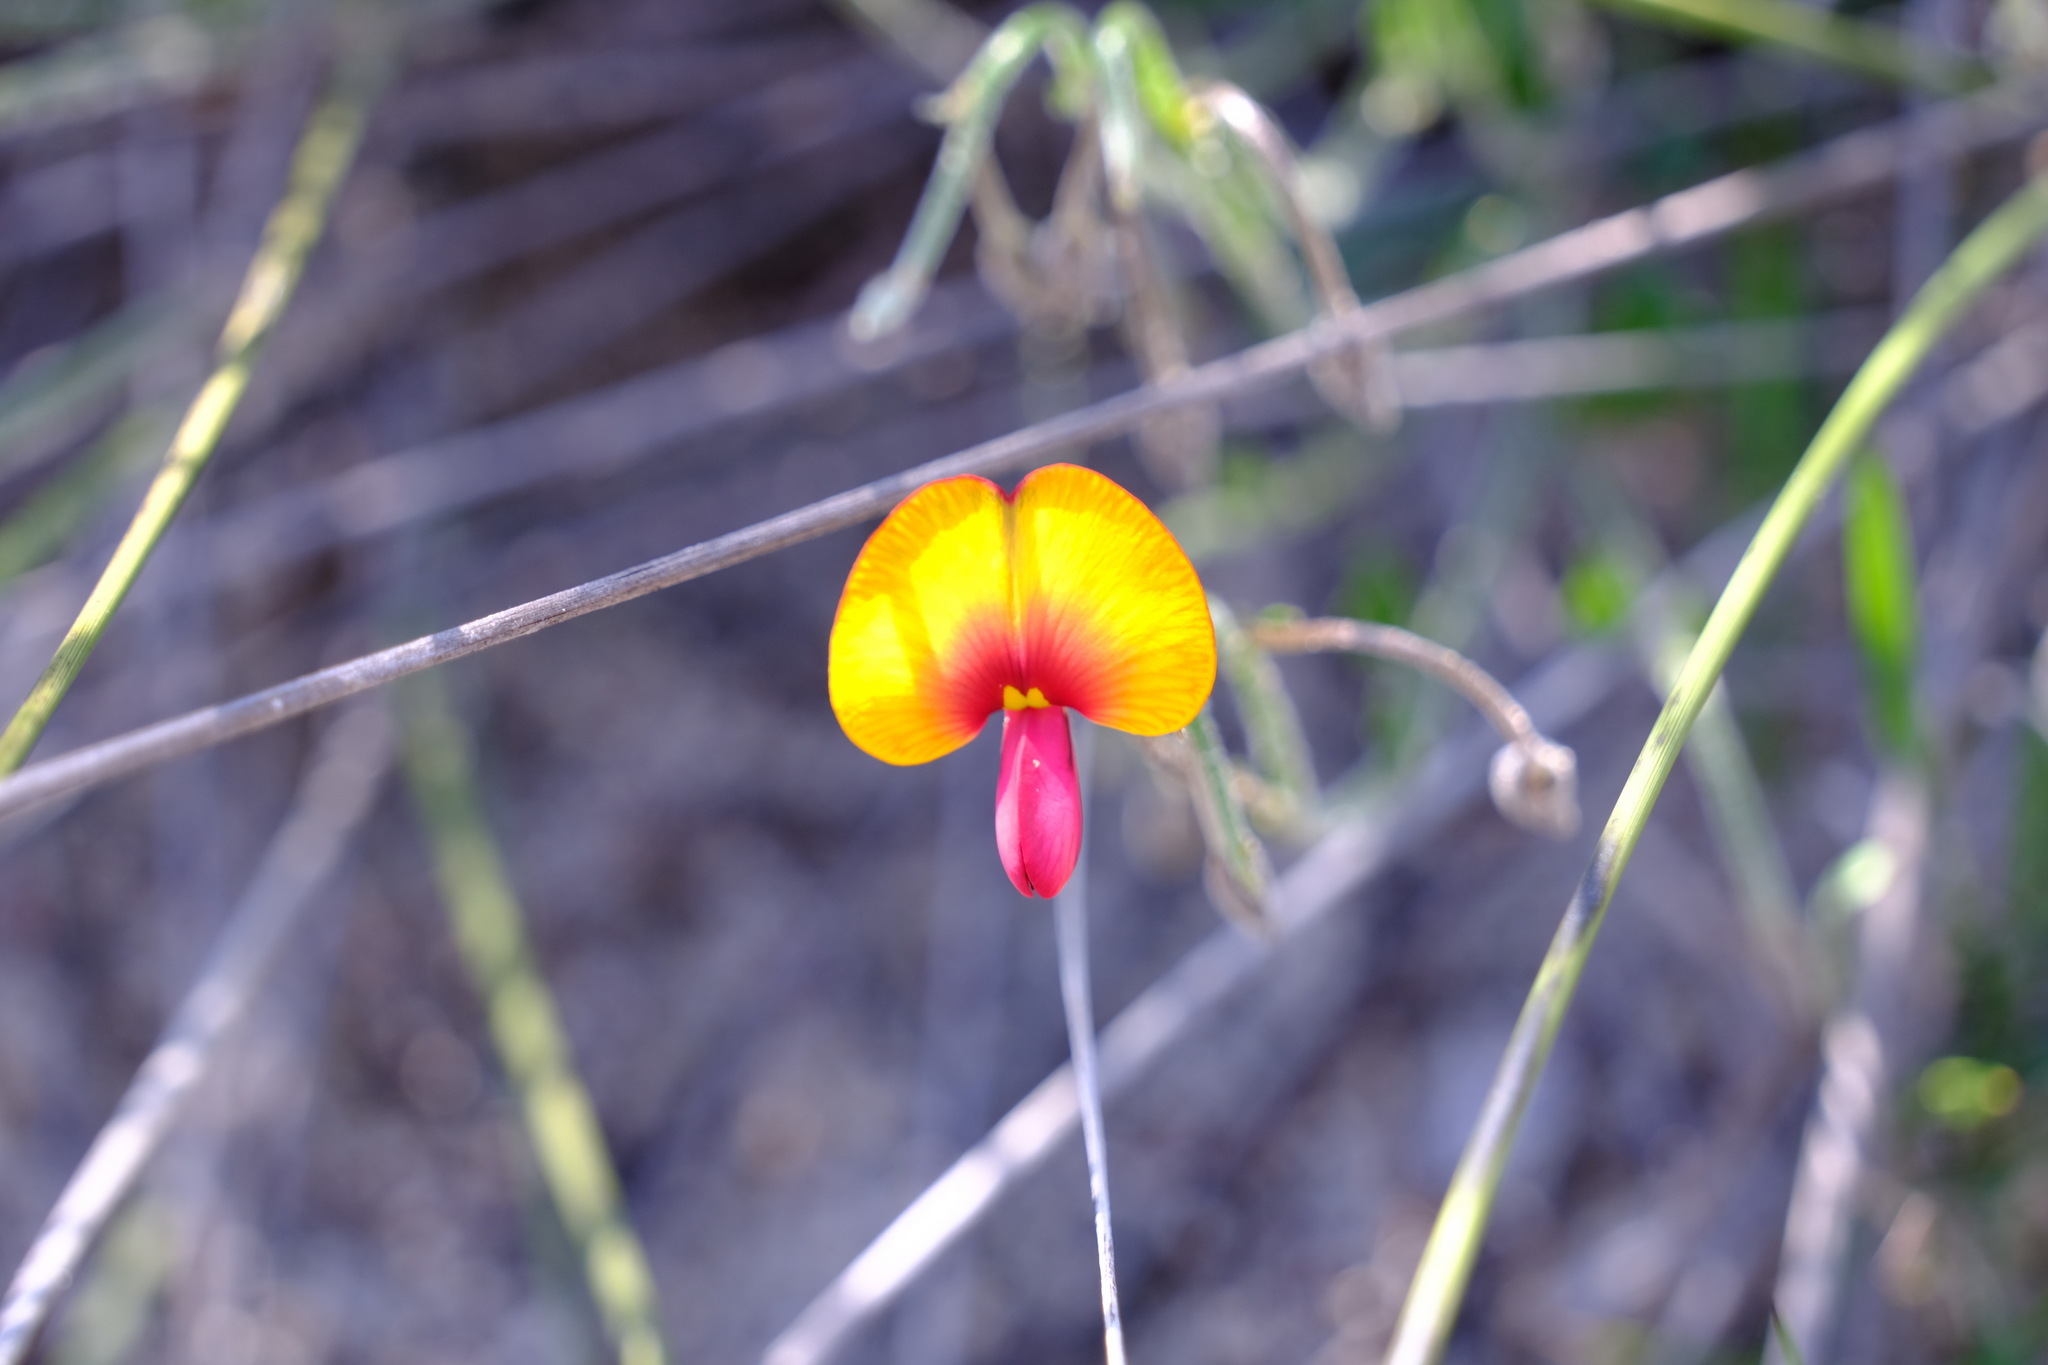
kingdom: Plantae
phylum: Tracheophyta
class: Magnoliopsida
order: Fabales
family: Fabaceae
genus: Isotropis
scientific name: Isotropis cuneifolia
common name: Granny bonnets
